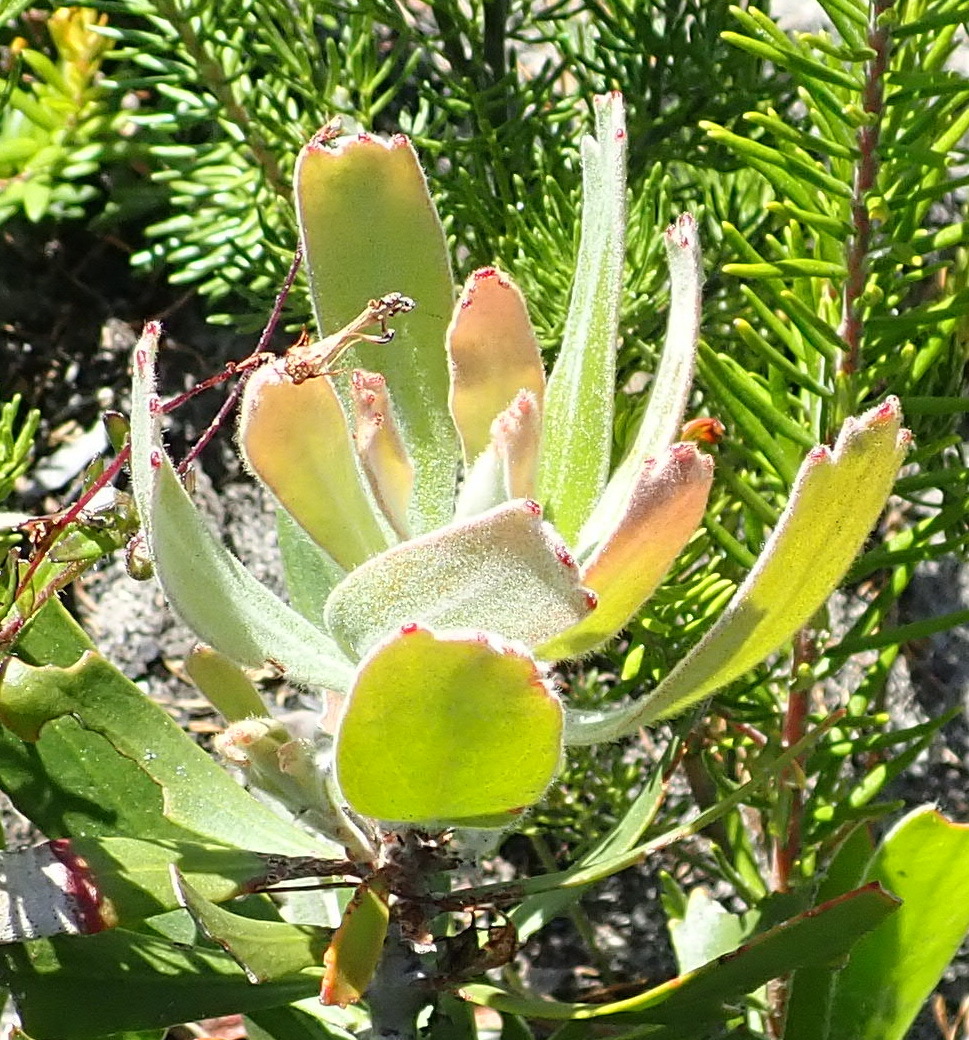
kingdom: Plantae
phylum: Tracheophyta
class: Magnoliopsida
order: Proteales
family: Proteaceae
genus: Leucospermum
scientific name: Leucospermum cuneiforme
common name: Common pincushion
